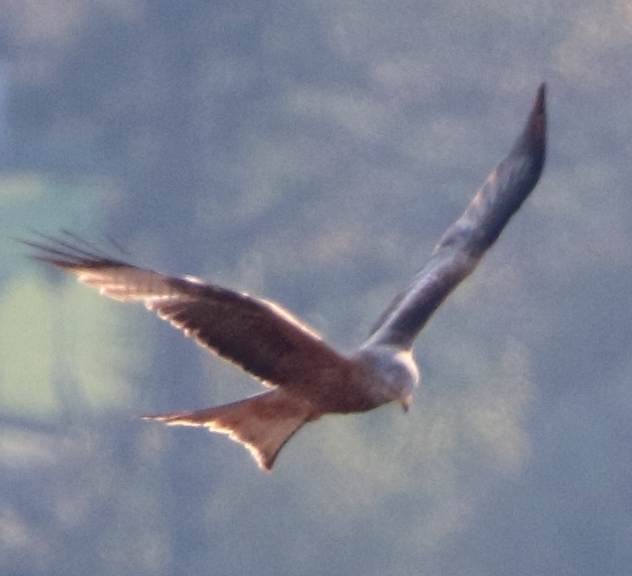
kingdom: Animalia
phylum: Chordata
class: Aves
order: Accipitriformes
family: Accipitridae
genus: Milvus
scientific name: Milvus milvus
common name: Red kite
